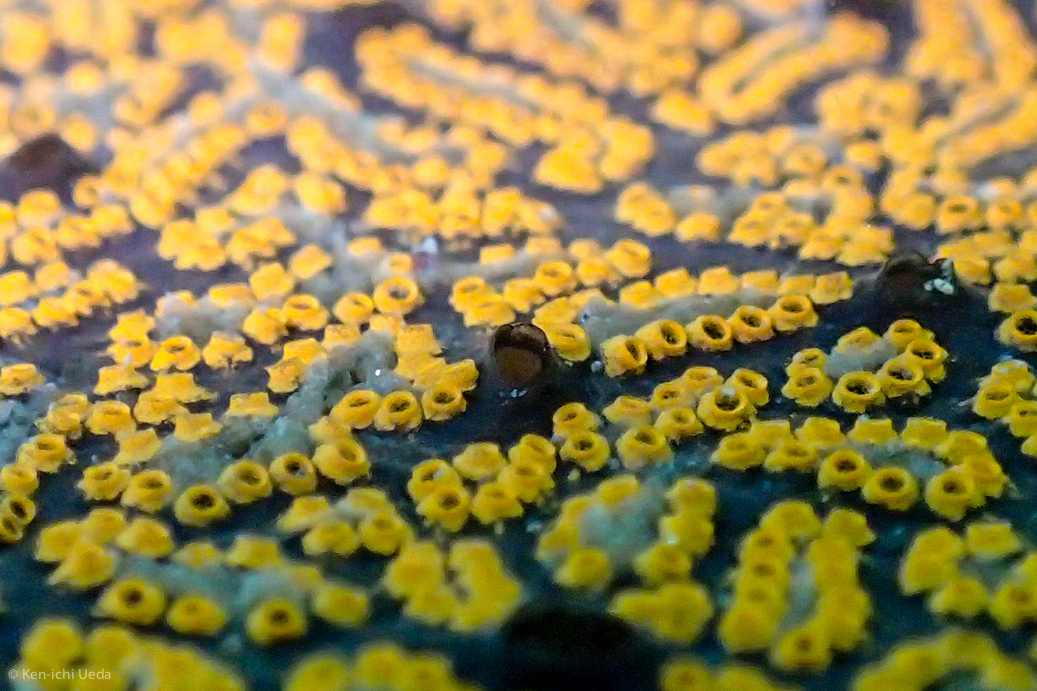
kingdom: Animalia
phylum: Chordata
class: Ascidiacea
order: Stolidobranchia
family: Styelidae
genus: Botrylloides
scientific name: Botrylloides violaceus
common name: Colonial sea squirt
